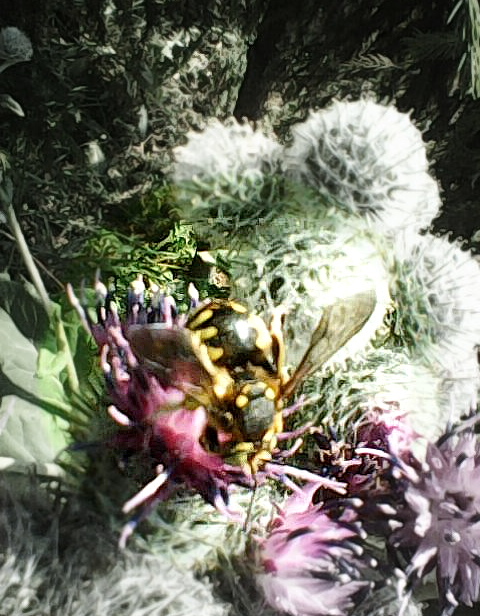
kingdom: Animalia
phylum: Arthropoda
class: Insecta
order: Hymenoptera
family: Megachilidae
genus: Anthidium
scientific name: Anthidium florentinum
